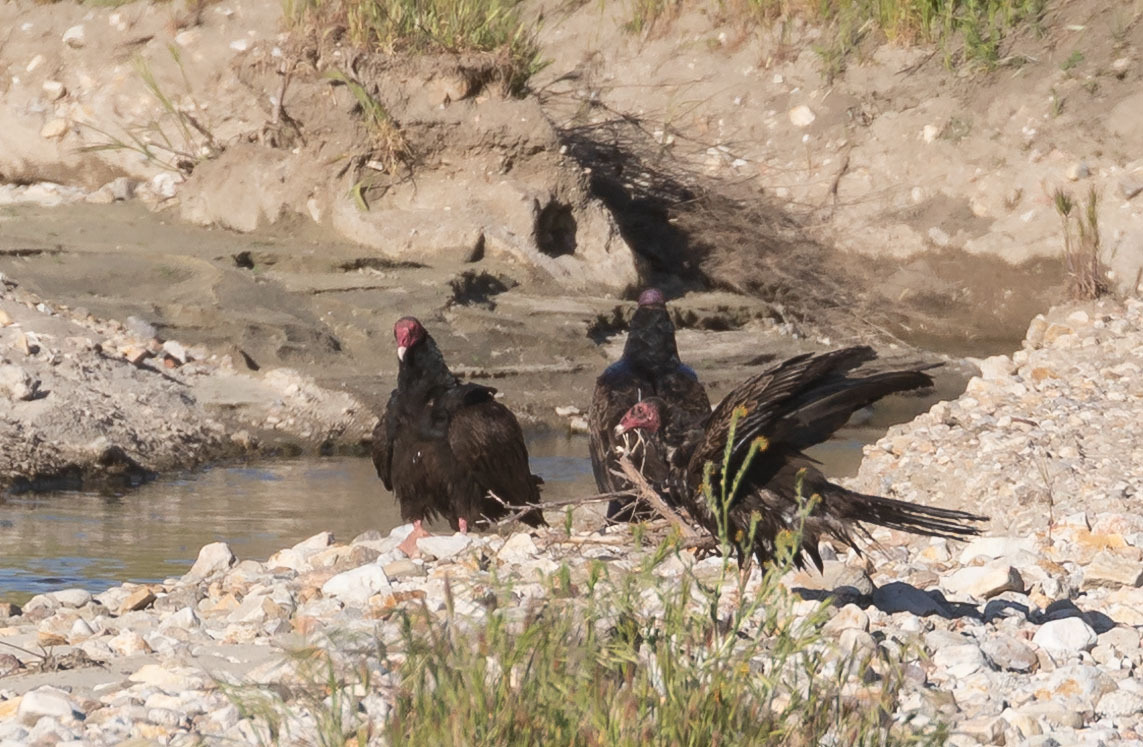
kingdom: Animalia
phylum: Chordata
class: Aves
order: Accipitriformes
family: Cathartidae
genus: Cathartes
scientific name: Cathartes aura
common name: Turkey vulture
